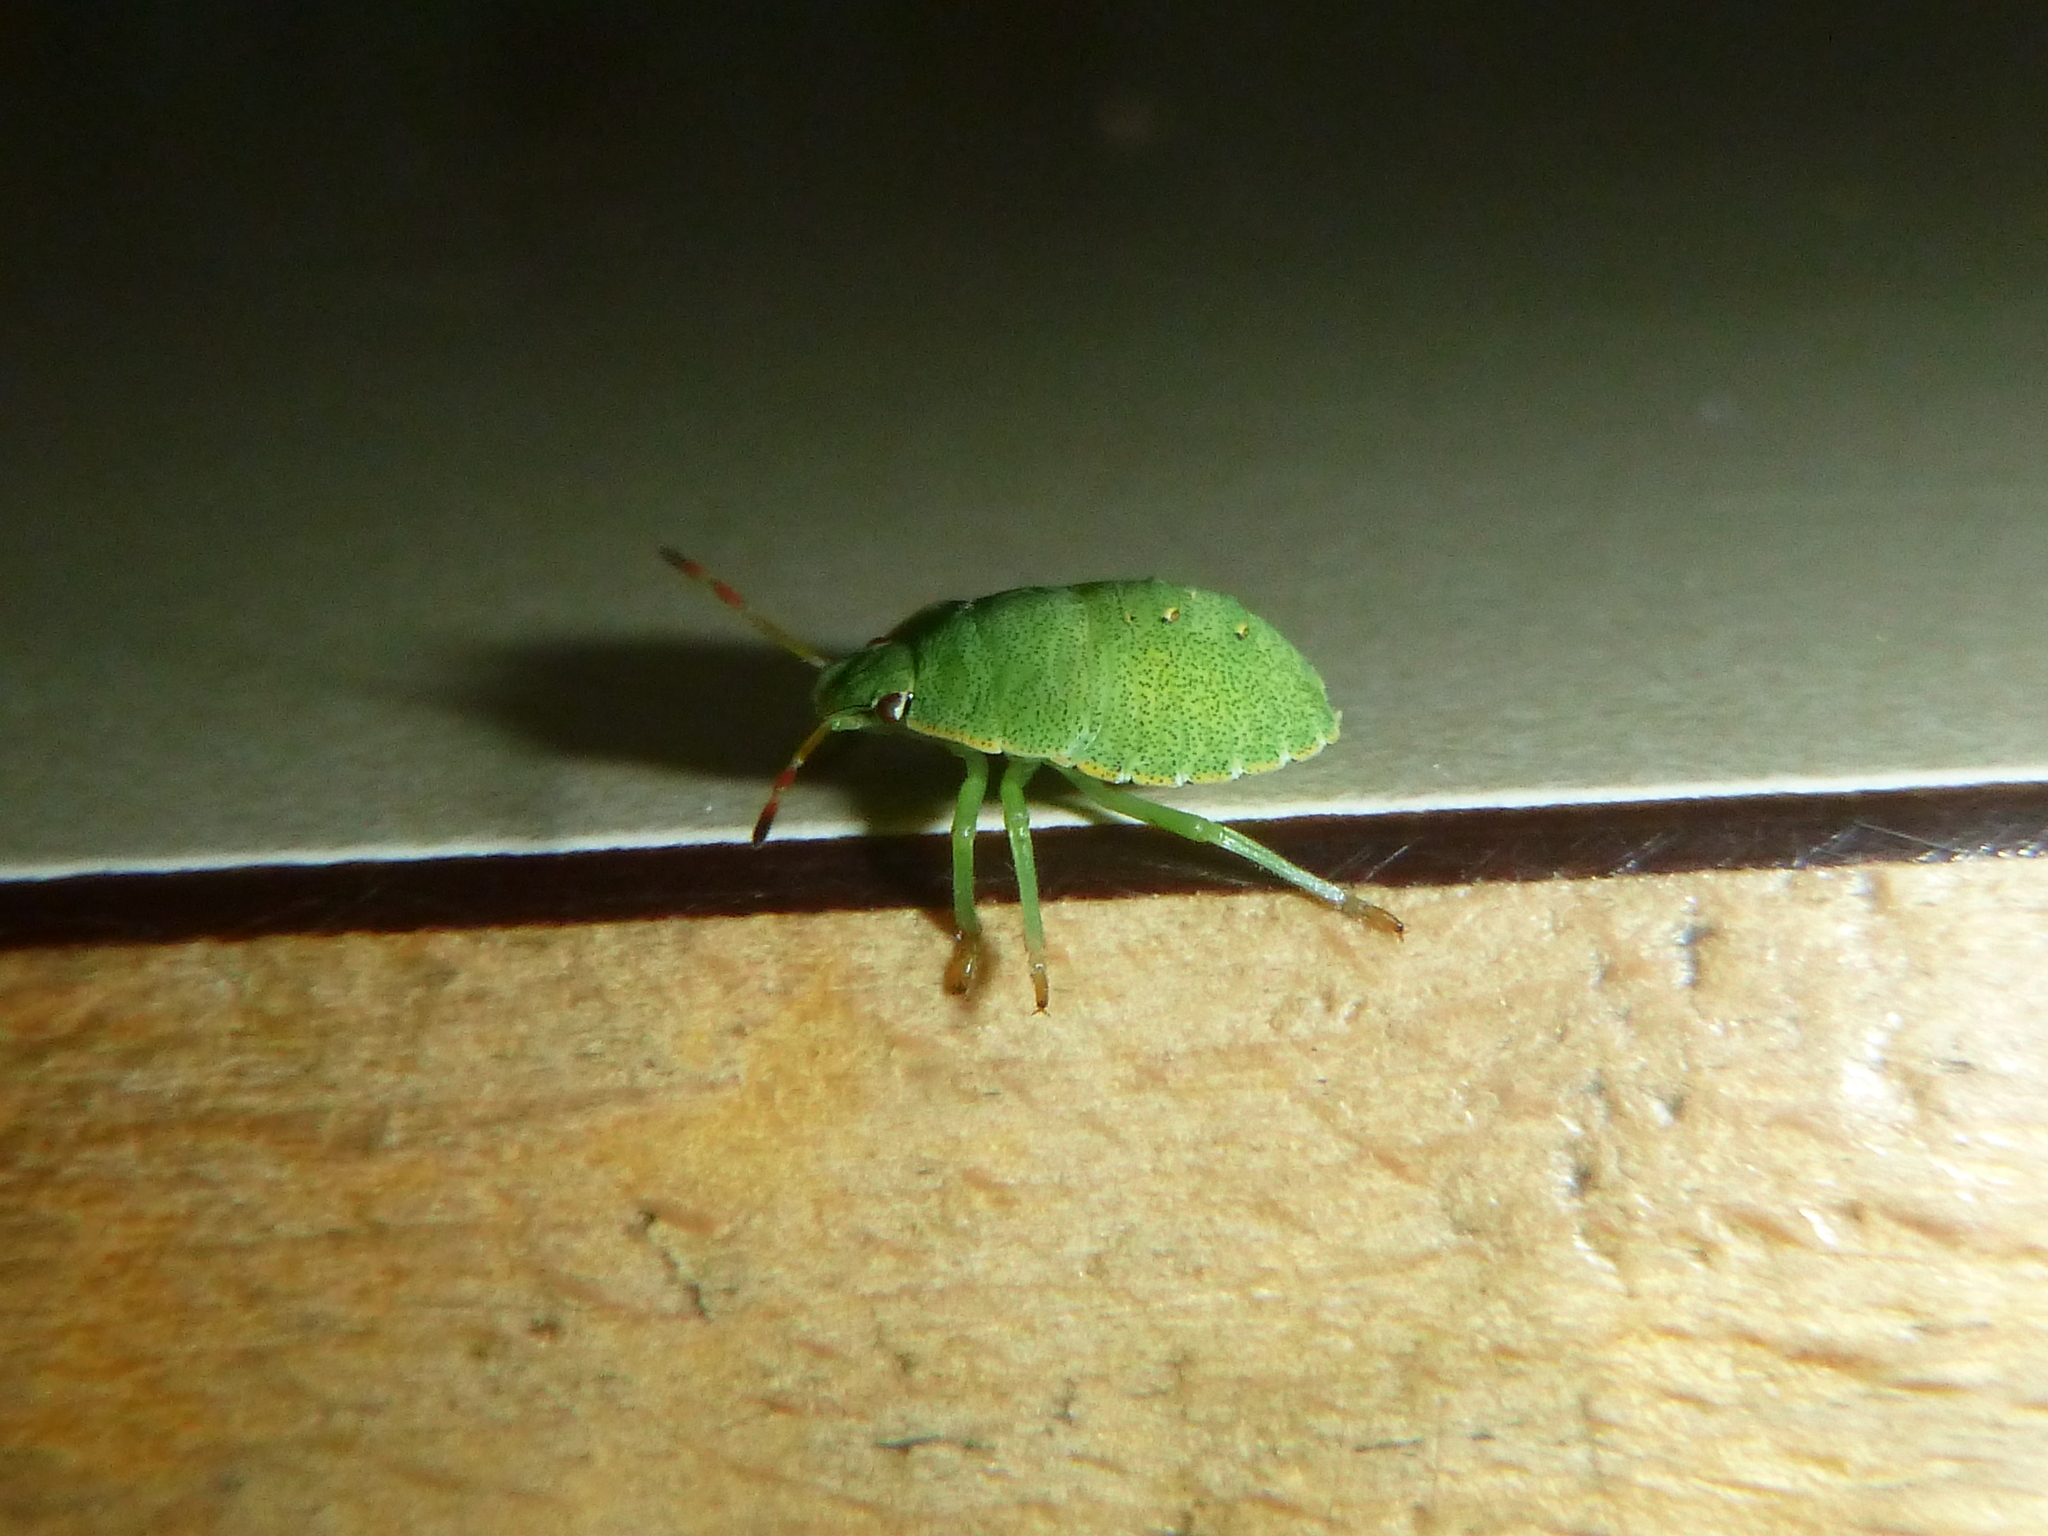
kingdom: Animalia
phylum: Arthropoda
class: Insecta
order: Hemiptera
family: Pentatomidae
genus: Palomena
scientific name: Palomena prasina
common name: Green shieldbug
